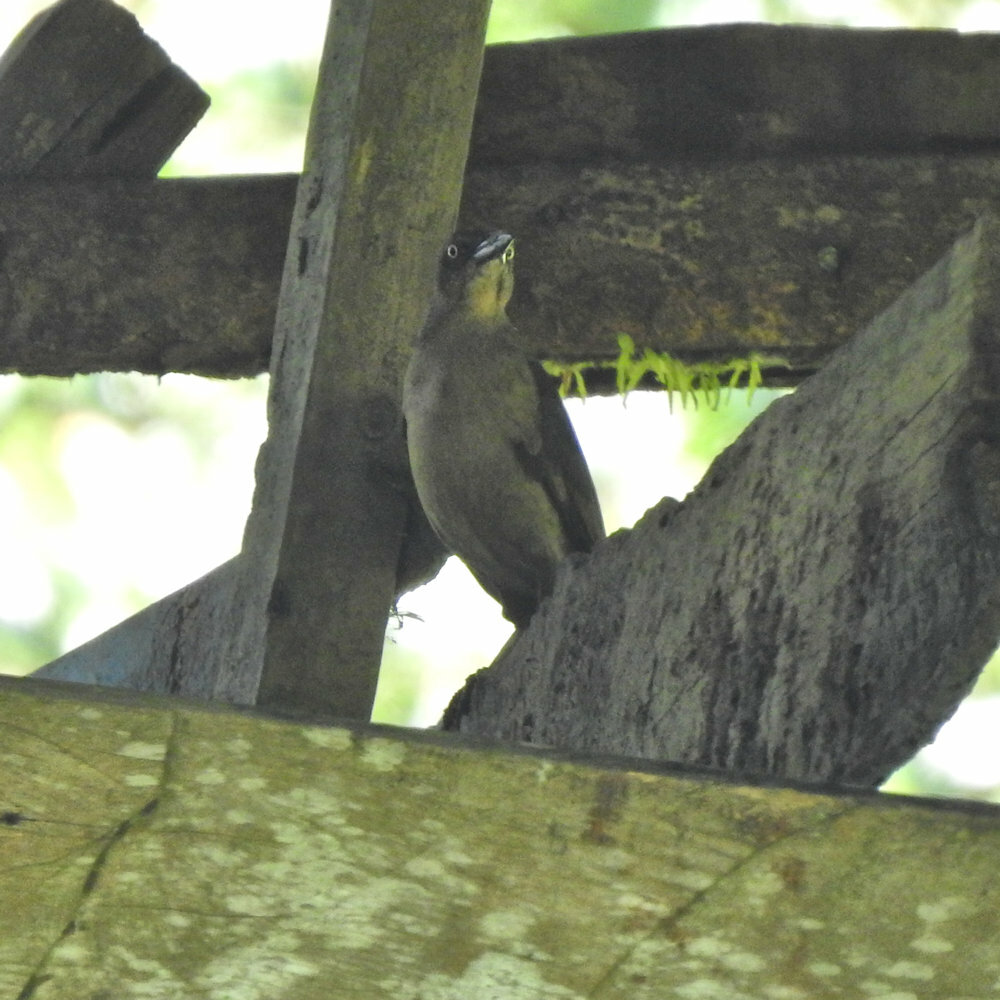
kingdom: Animalia
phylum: Chordata
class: Aves
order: Passeriformes
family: Icteridae
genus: Quiscalus
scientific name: Quiscalus mexicanus
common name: Great-tailed grackle
